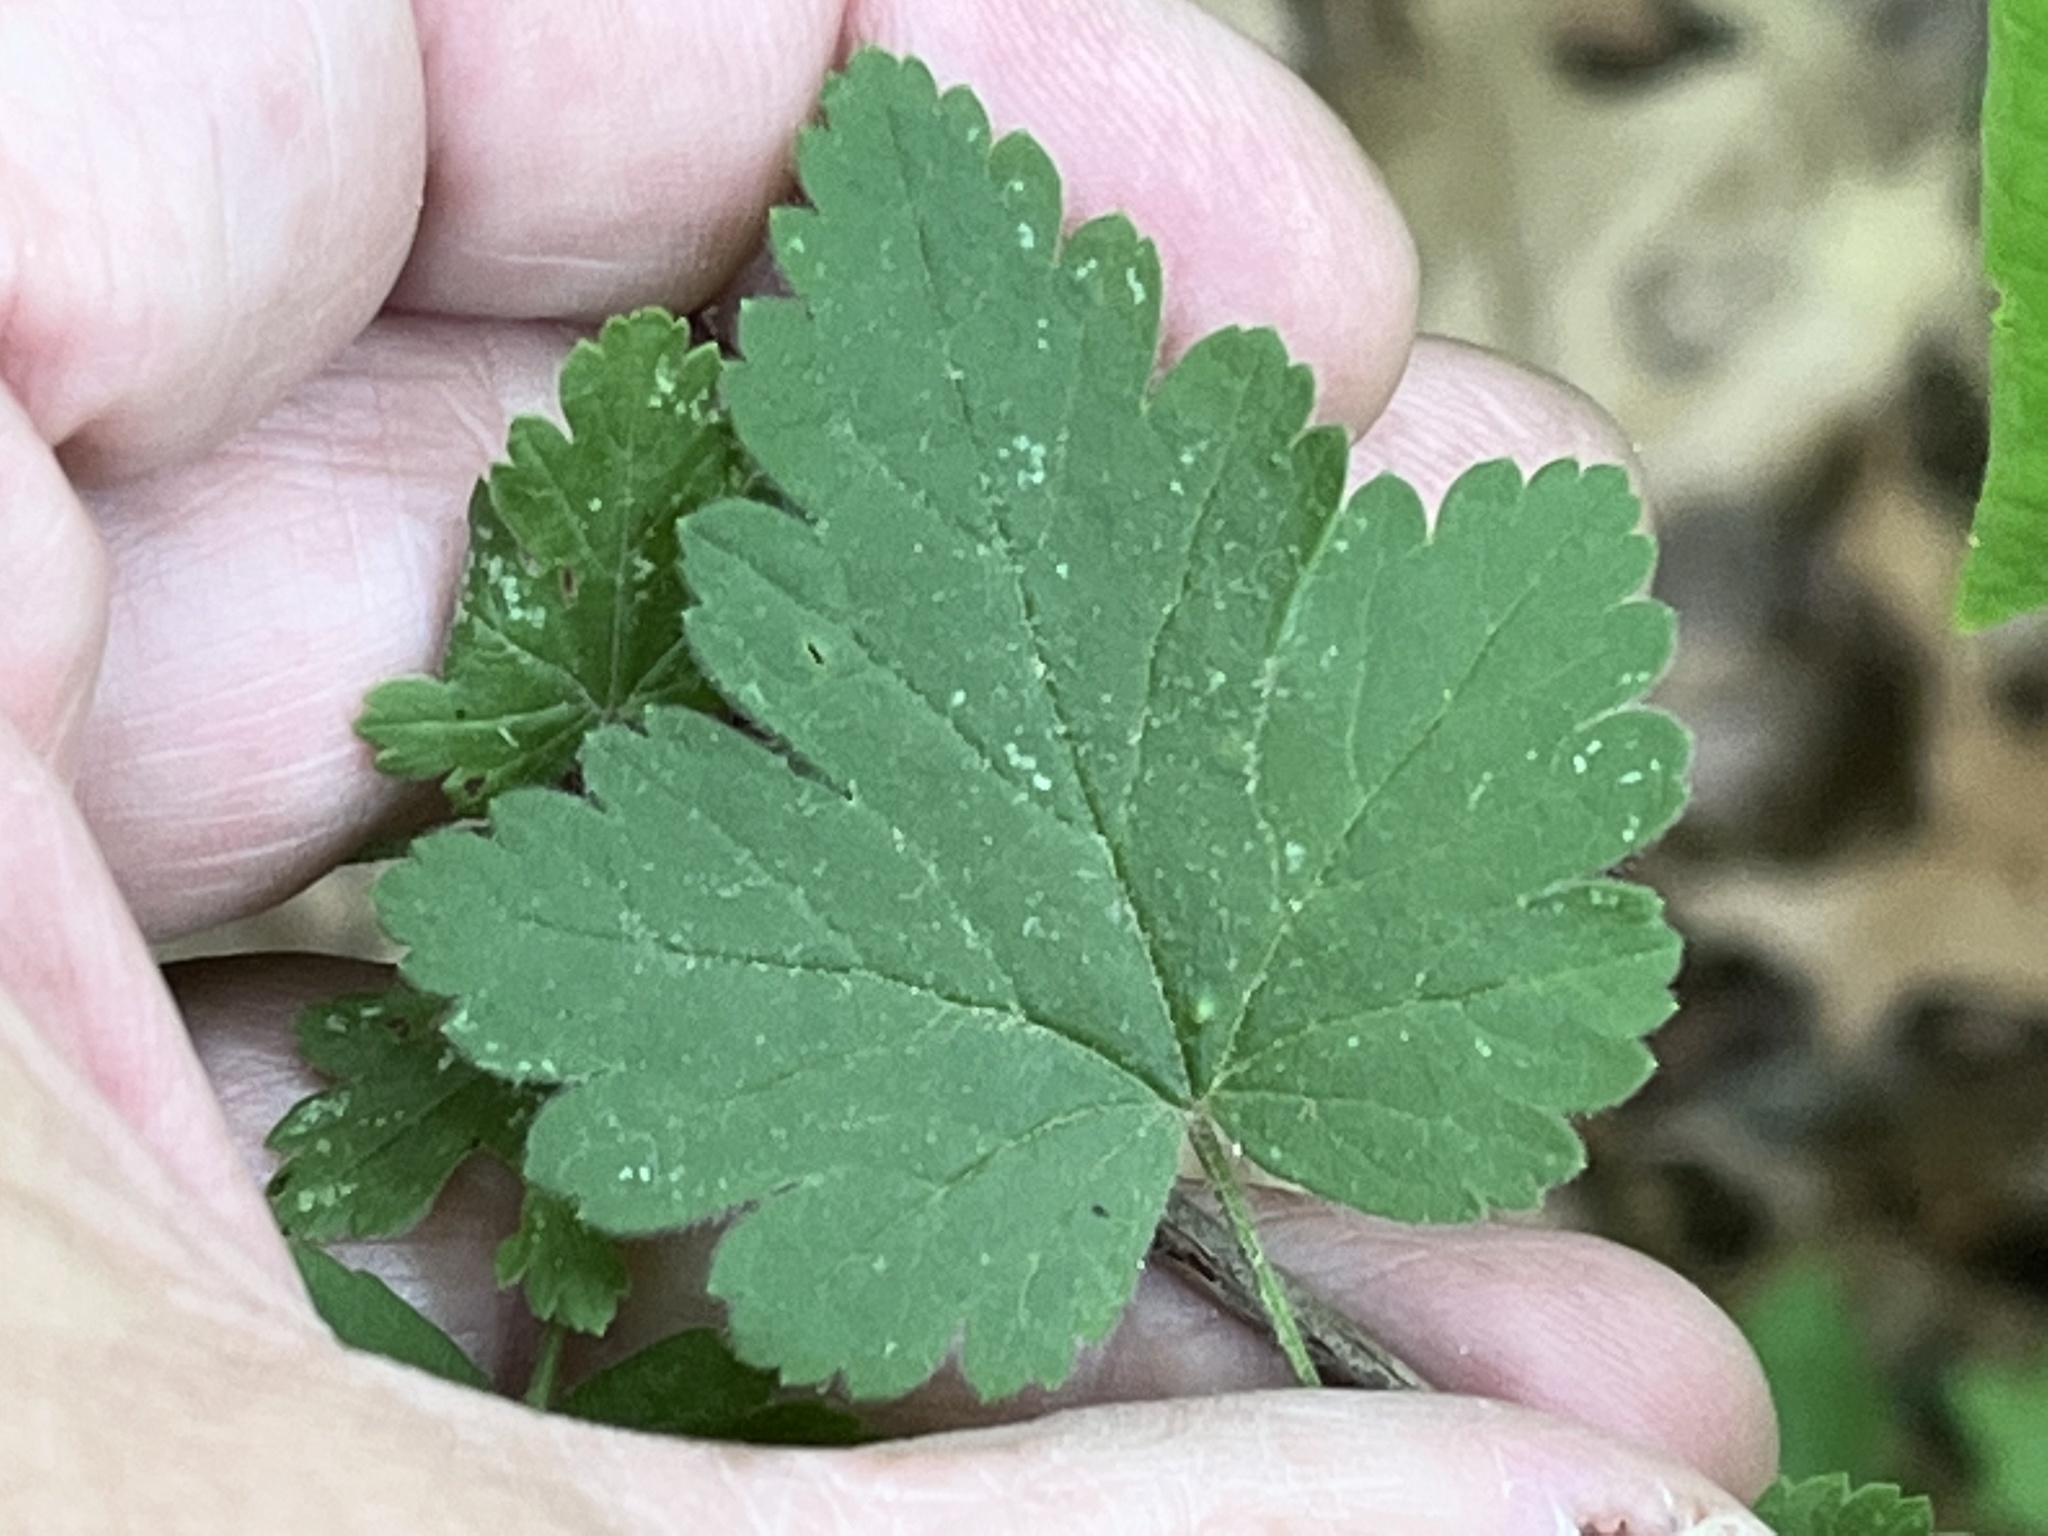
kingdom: Plantae
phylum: Tracheophyta
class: Magnoliopsida
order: Saxifragales
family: Grossulariaceae
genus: Ribes
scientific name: Ribes cynosbati
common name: American gooseberry
